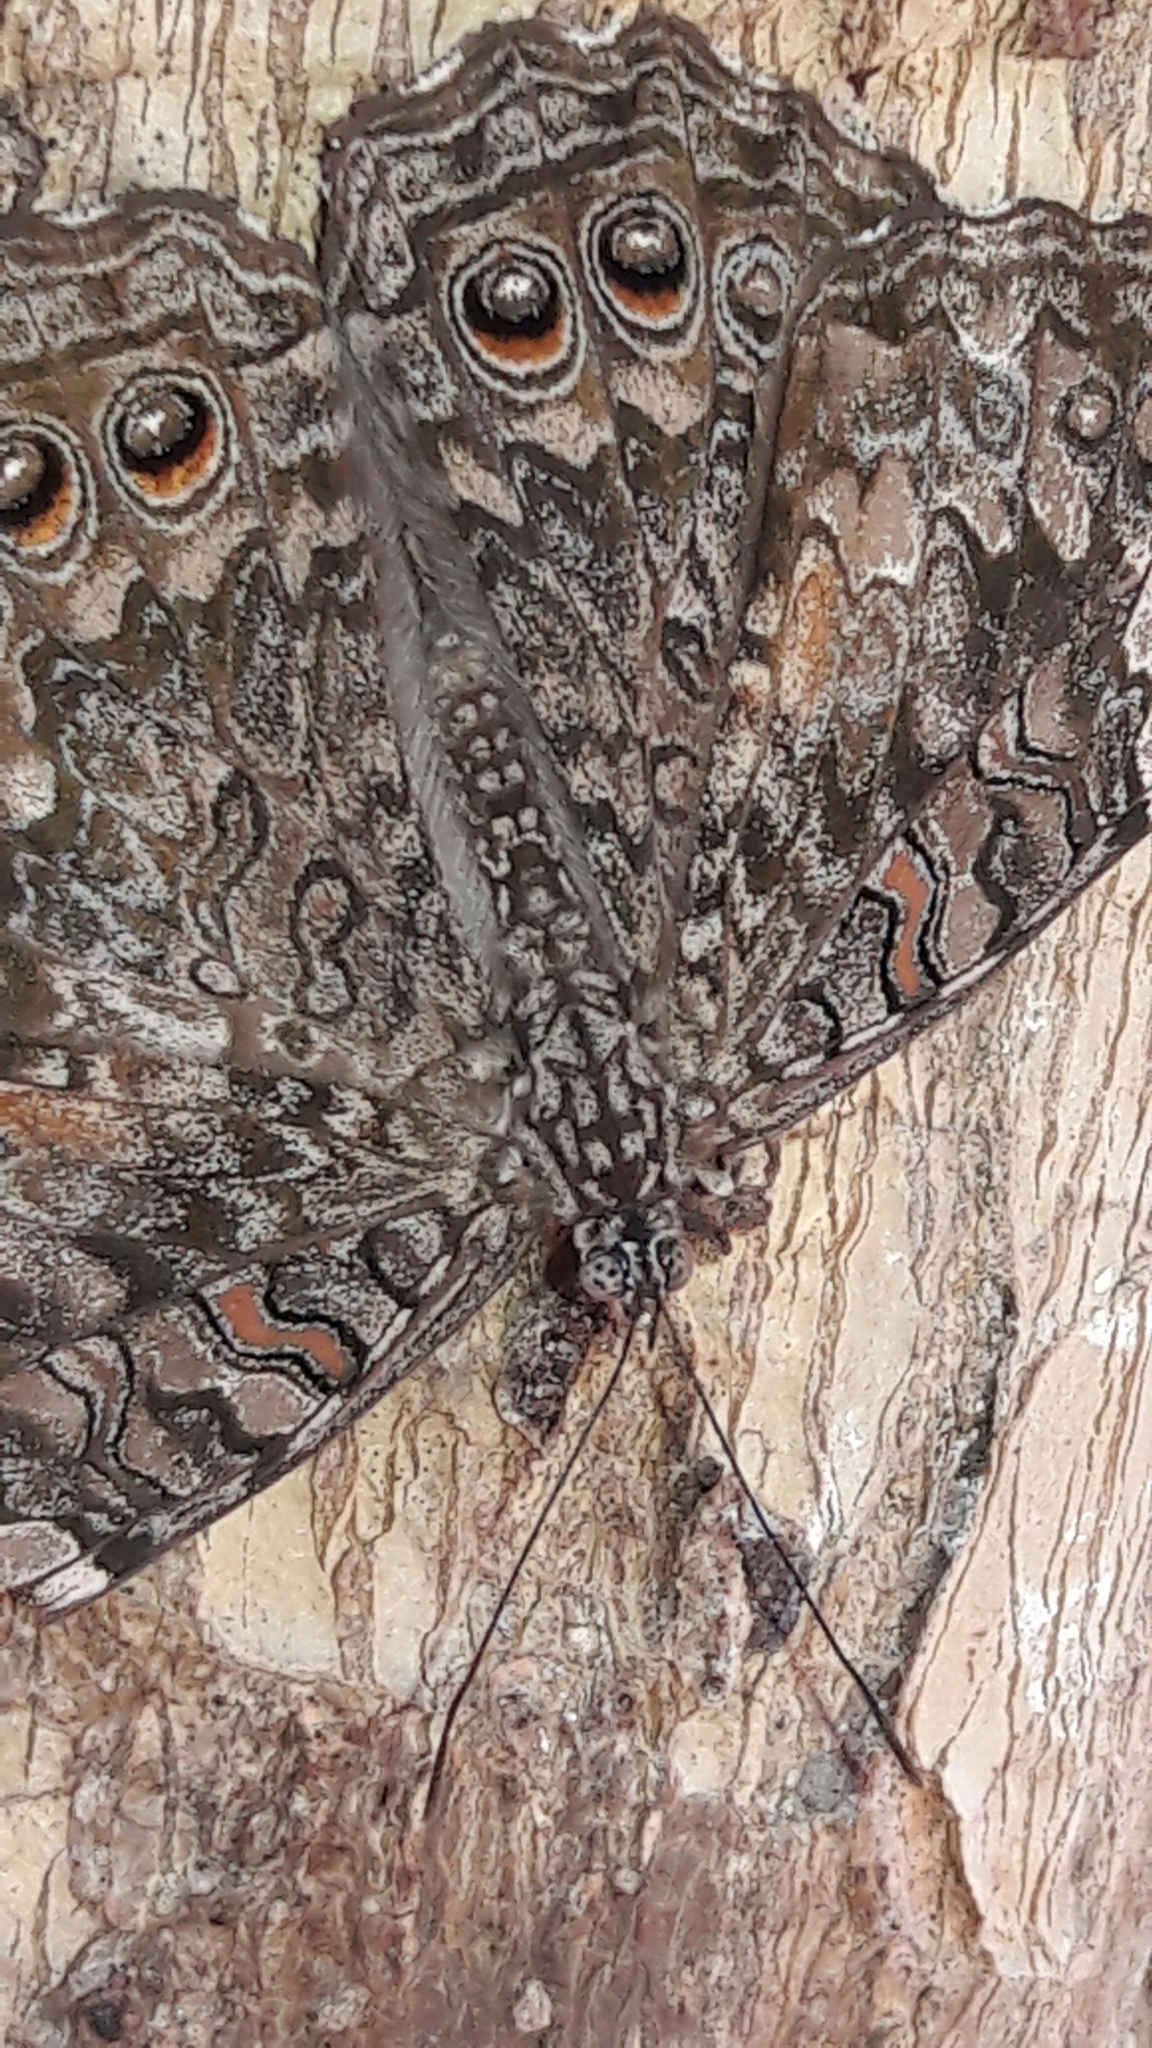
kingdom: Animalia
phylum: Arthropoda
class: Insecta
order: Lepidoptera
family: Nymphalidae
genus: Hamadryas
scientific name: Hamadryas februa
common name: Gray cracker
